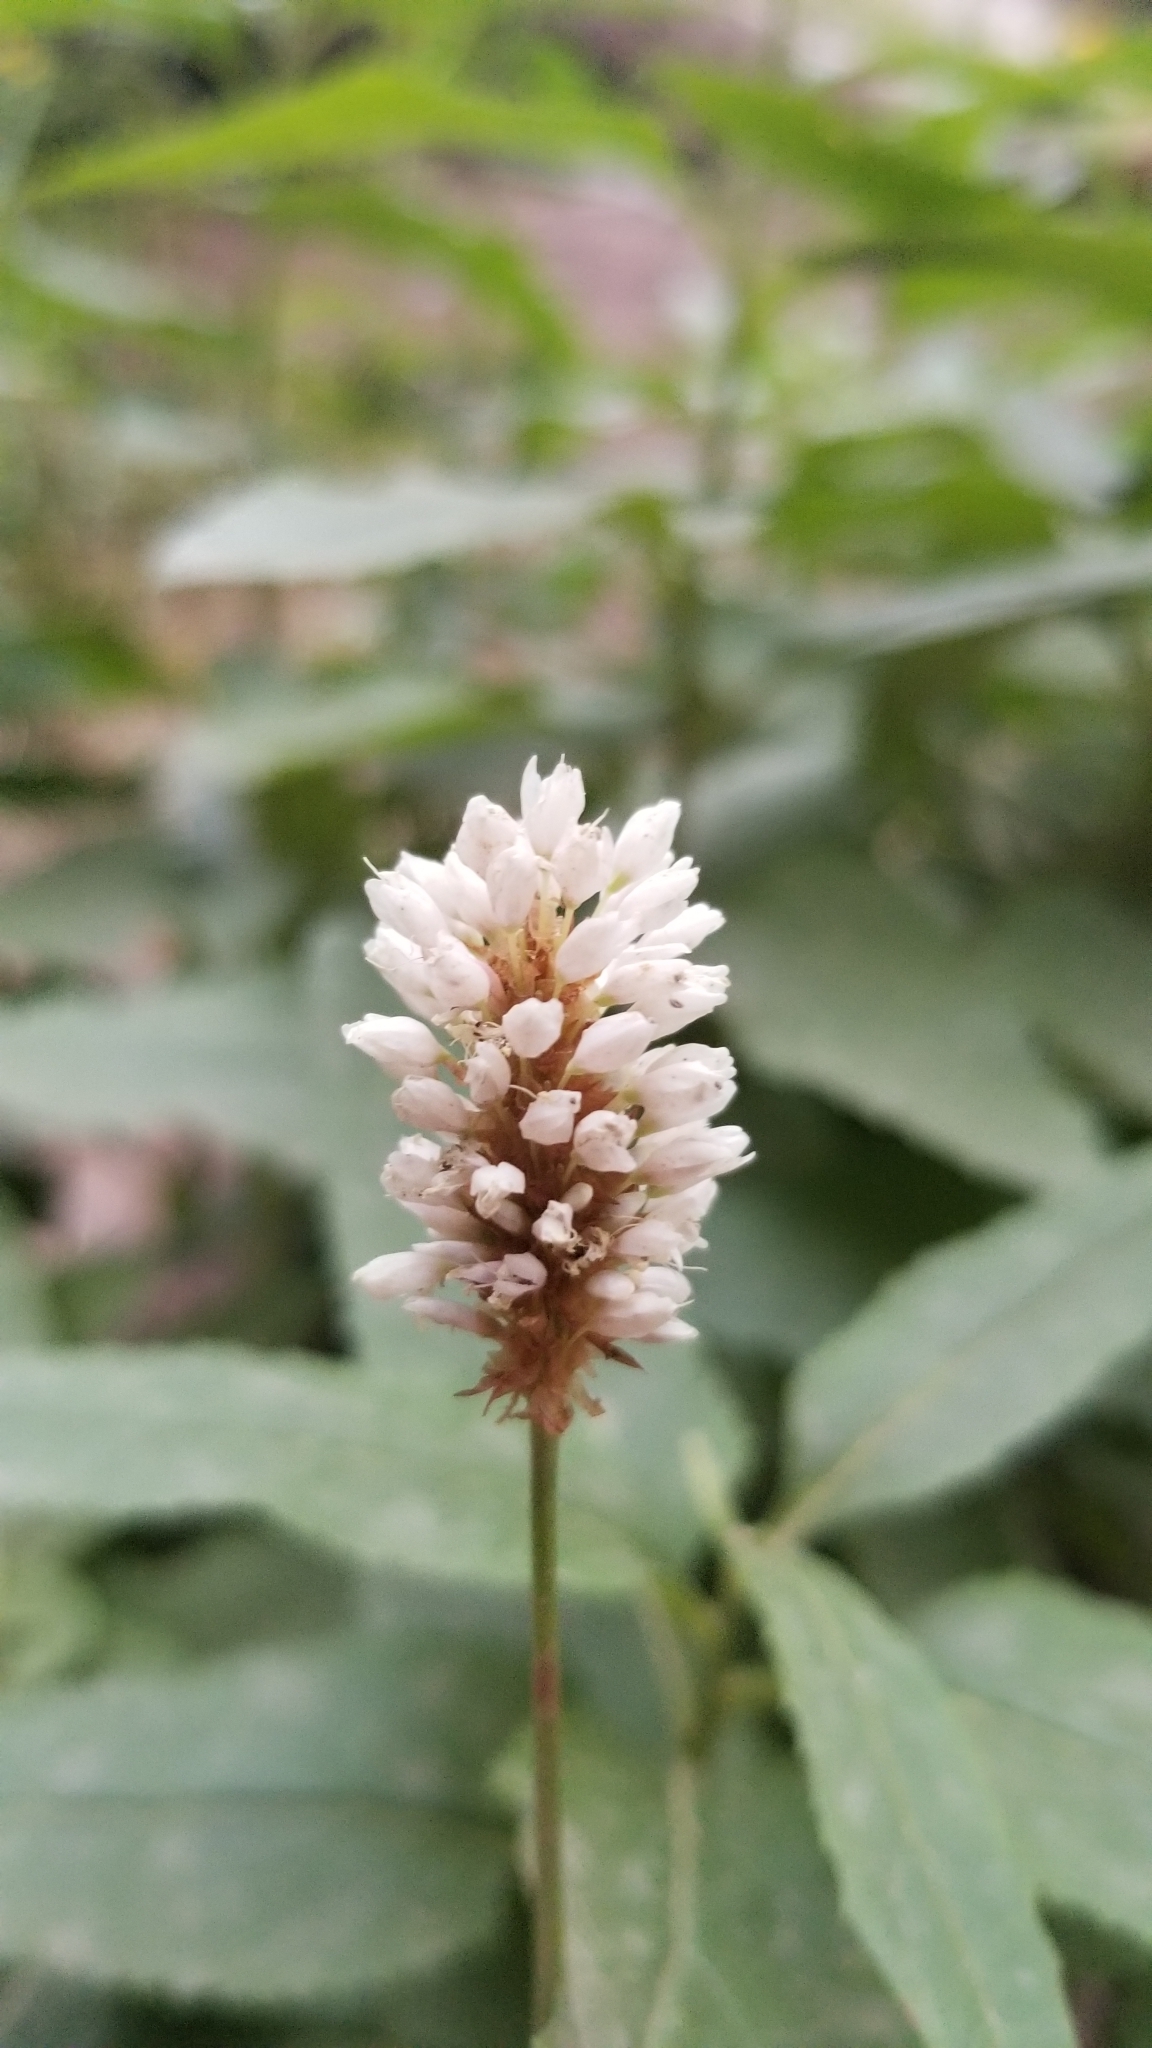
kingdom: Plantae
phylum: Tracheophyta
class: Magnoliopsida
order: Caryophyllales
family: Polygonaceae
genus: Bistorta
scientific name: Bistorta bistortoides
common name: American bistort
